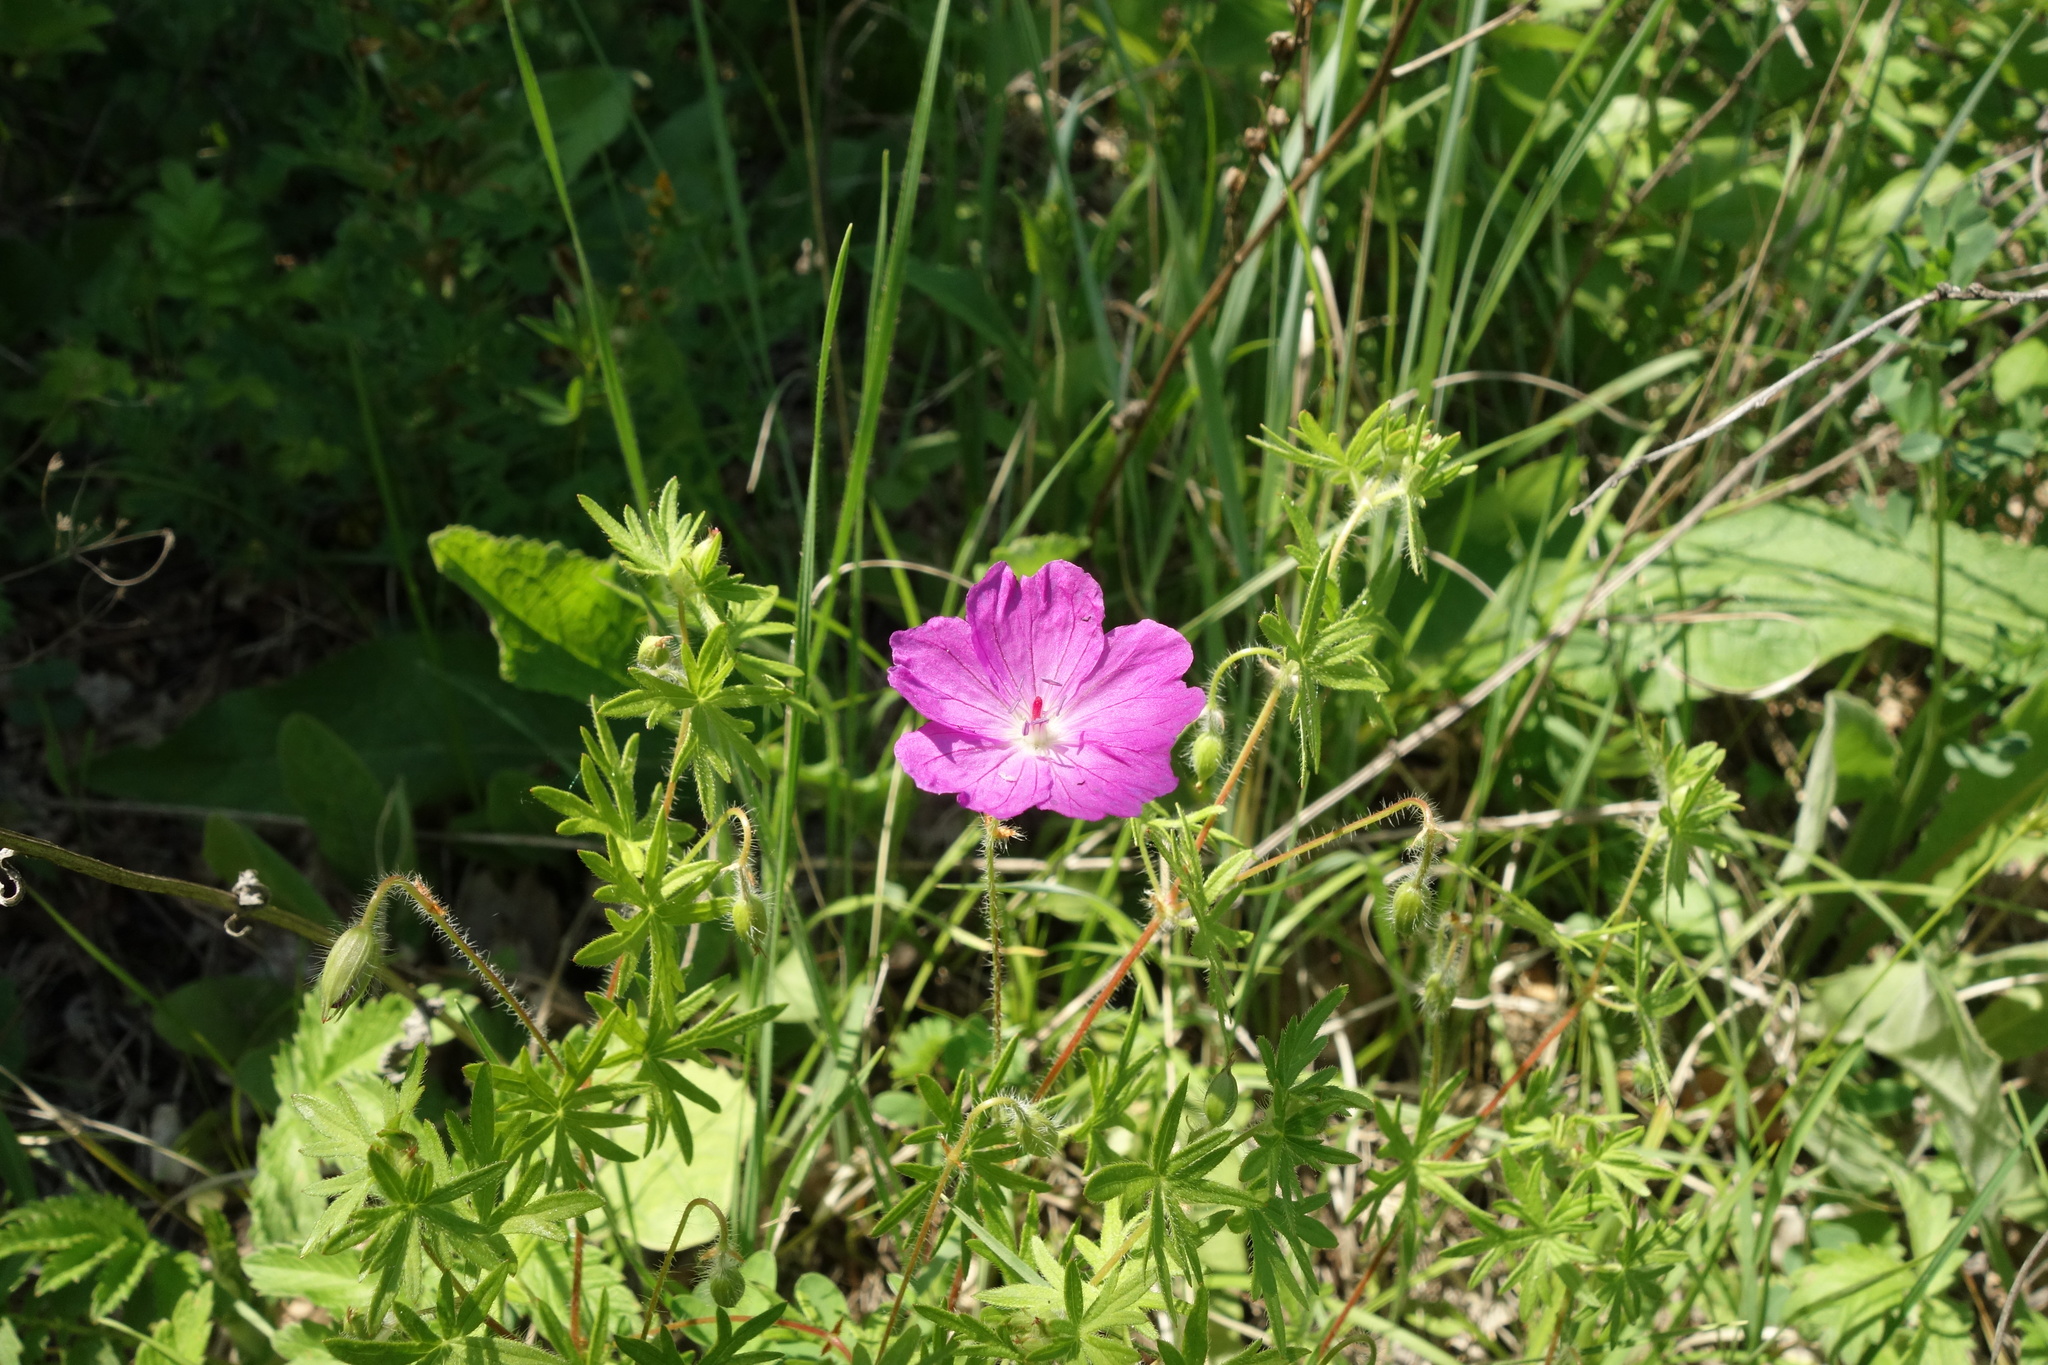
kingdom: Plantae
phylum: Tracheophyta
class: Magnoliopsida
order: Geraniales
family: Geraniaceae
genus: Geranium
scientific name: Geranium sanguineum
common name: Bloody crane's-bill
